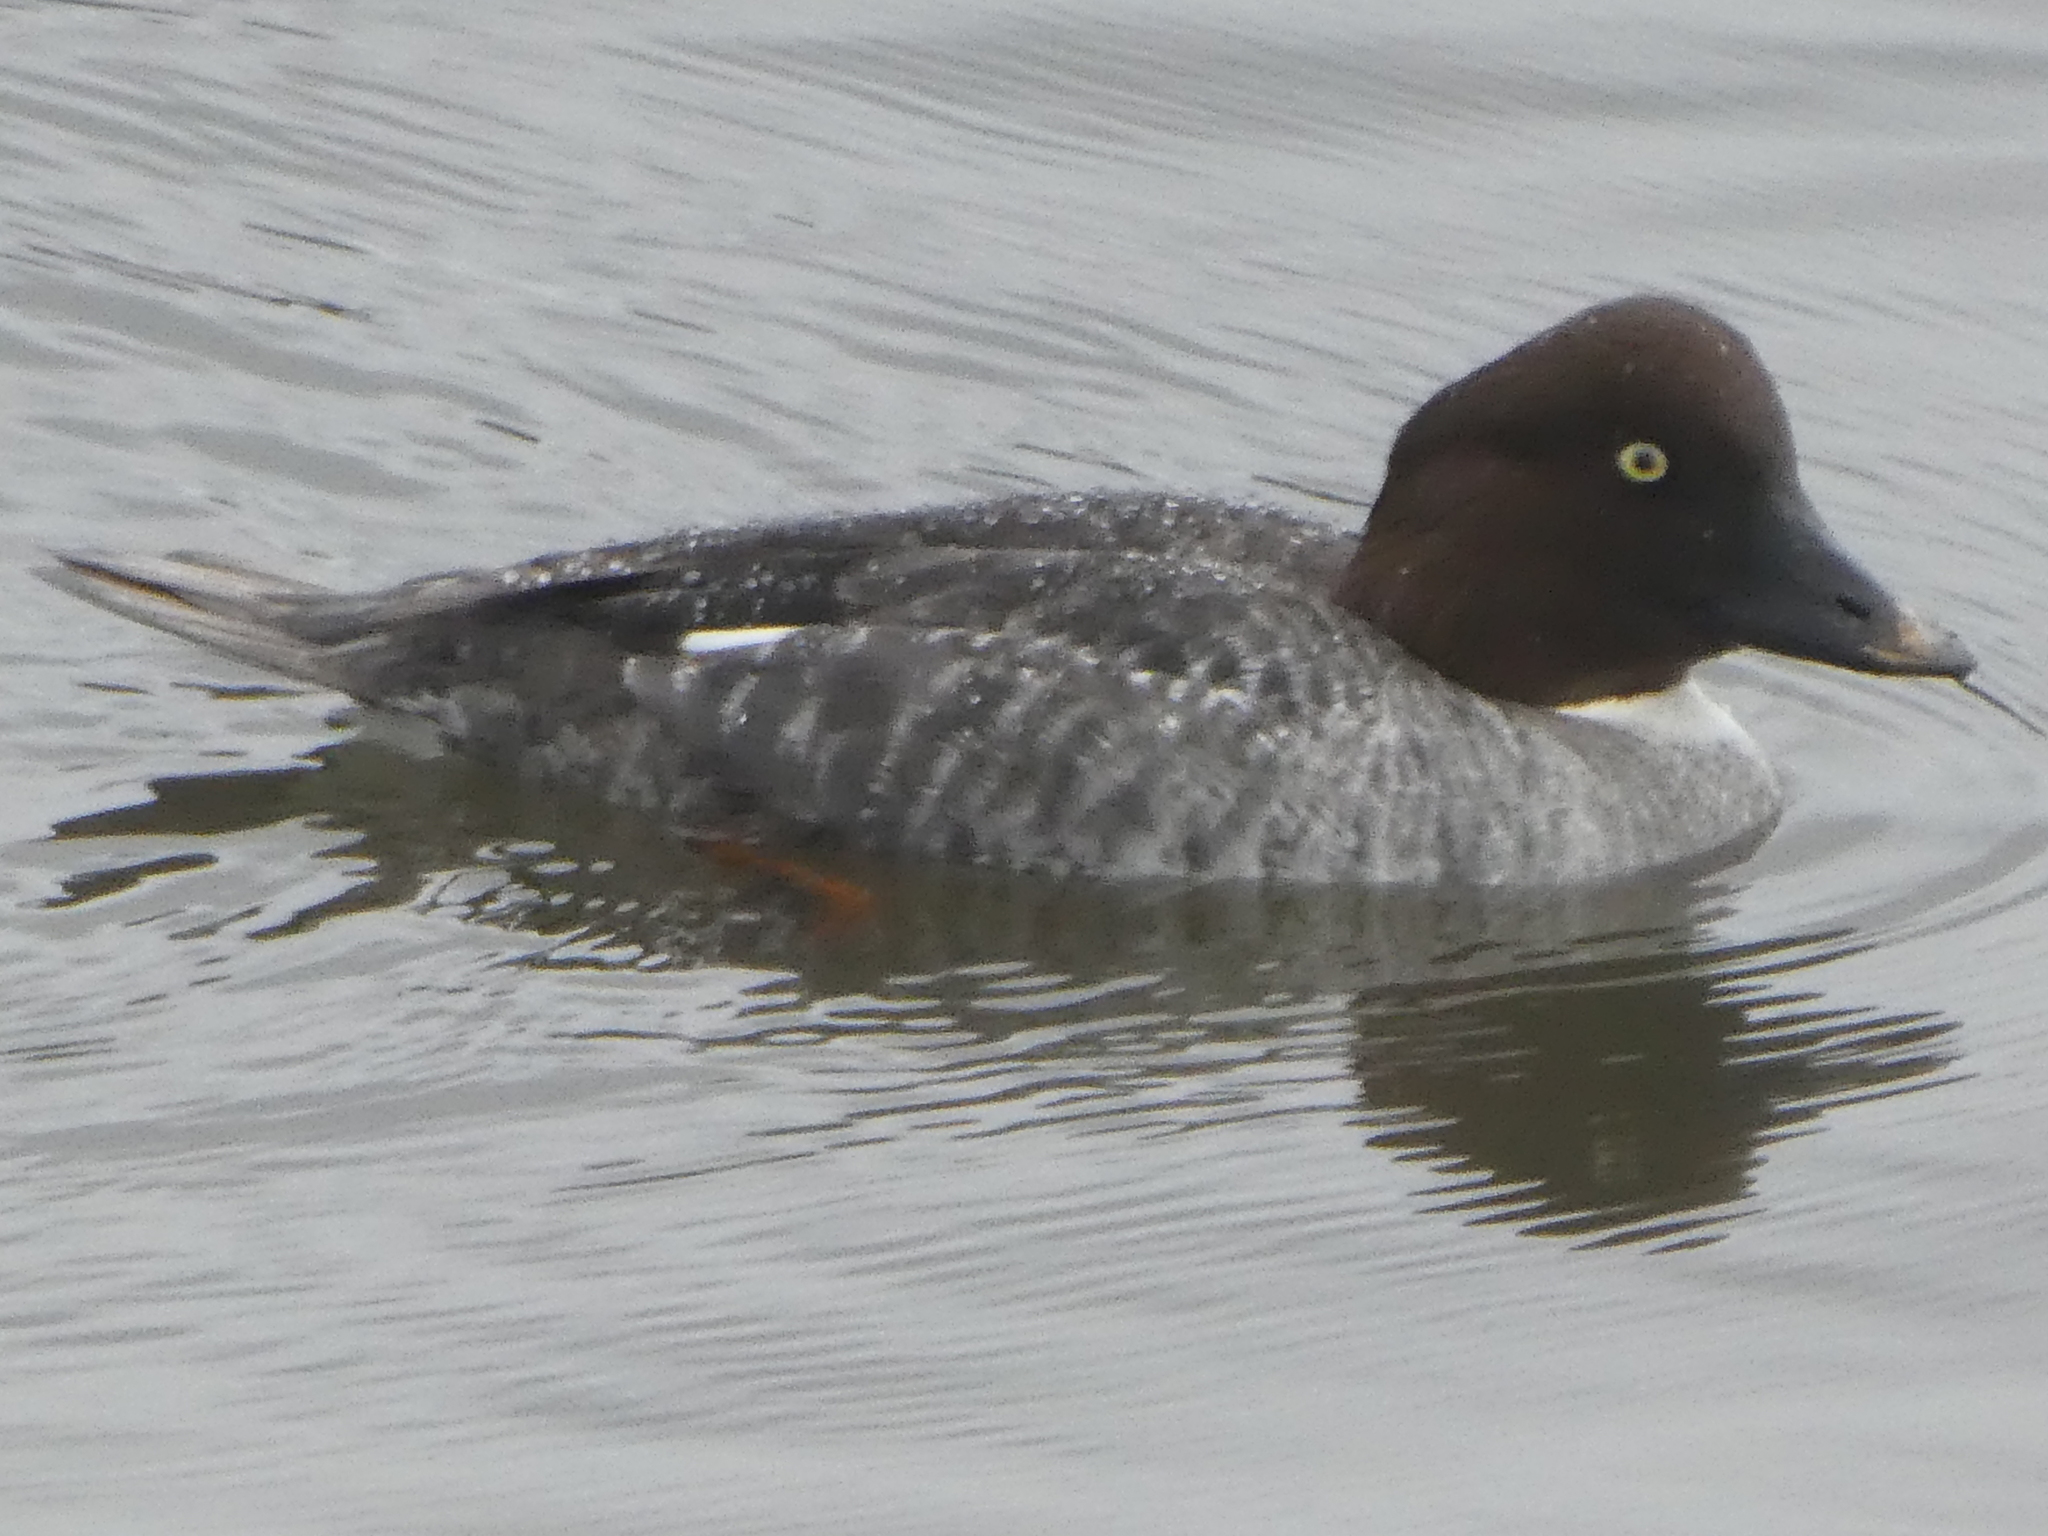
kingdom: Animalia
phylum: Chordata
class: Aves
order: Anseriformes
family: Anatidae
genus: Bucephala
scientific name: Bucephala clangula
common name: Common goldeneye
